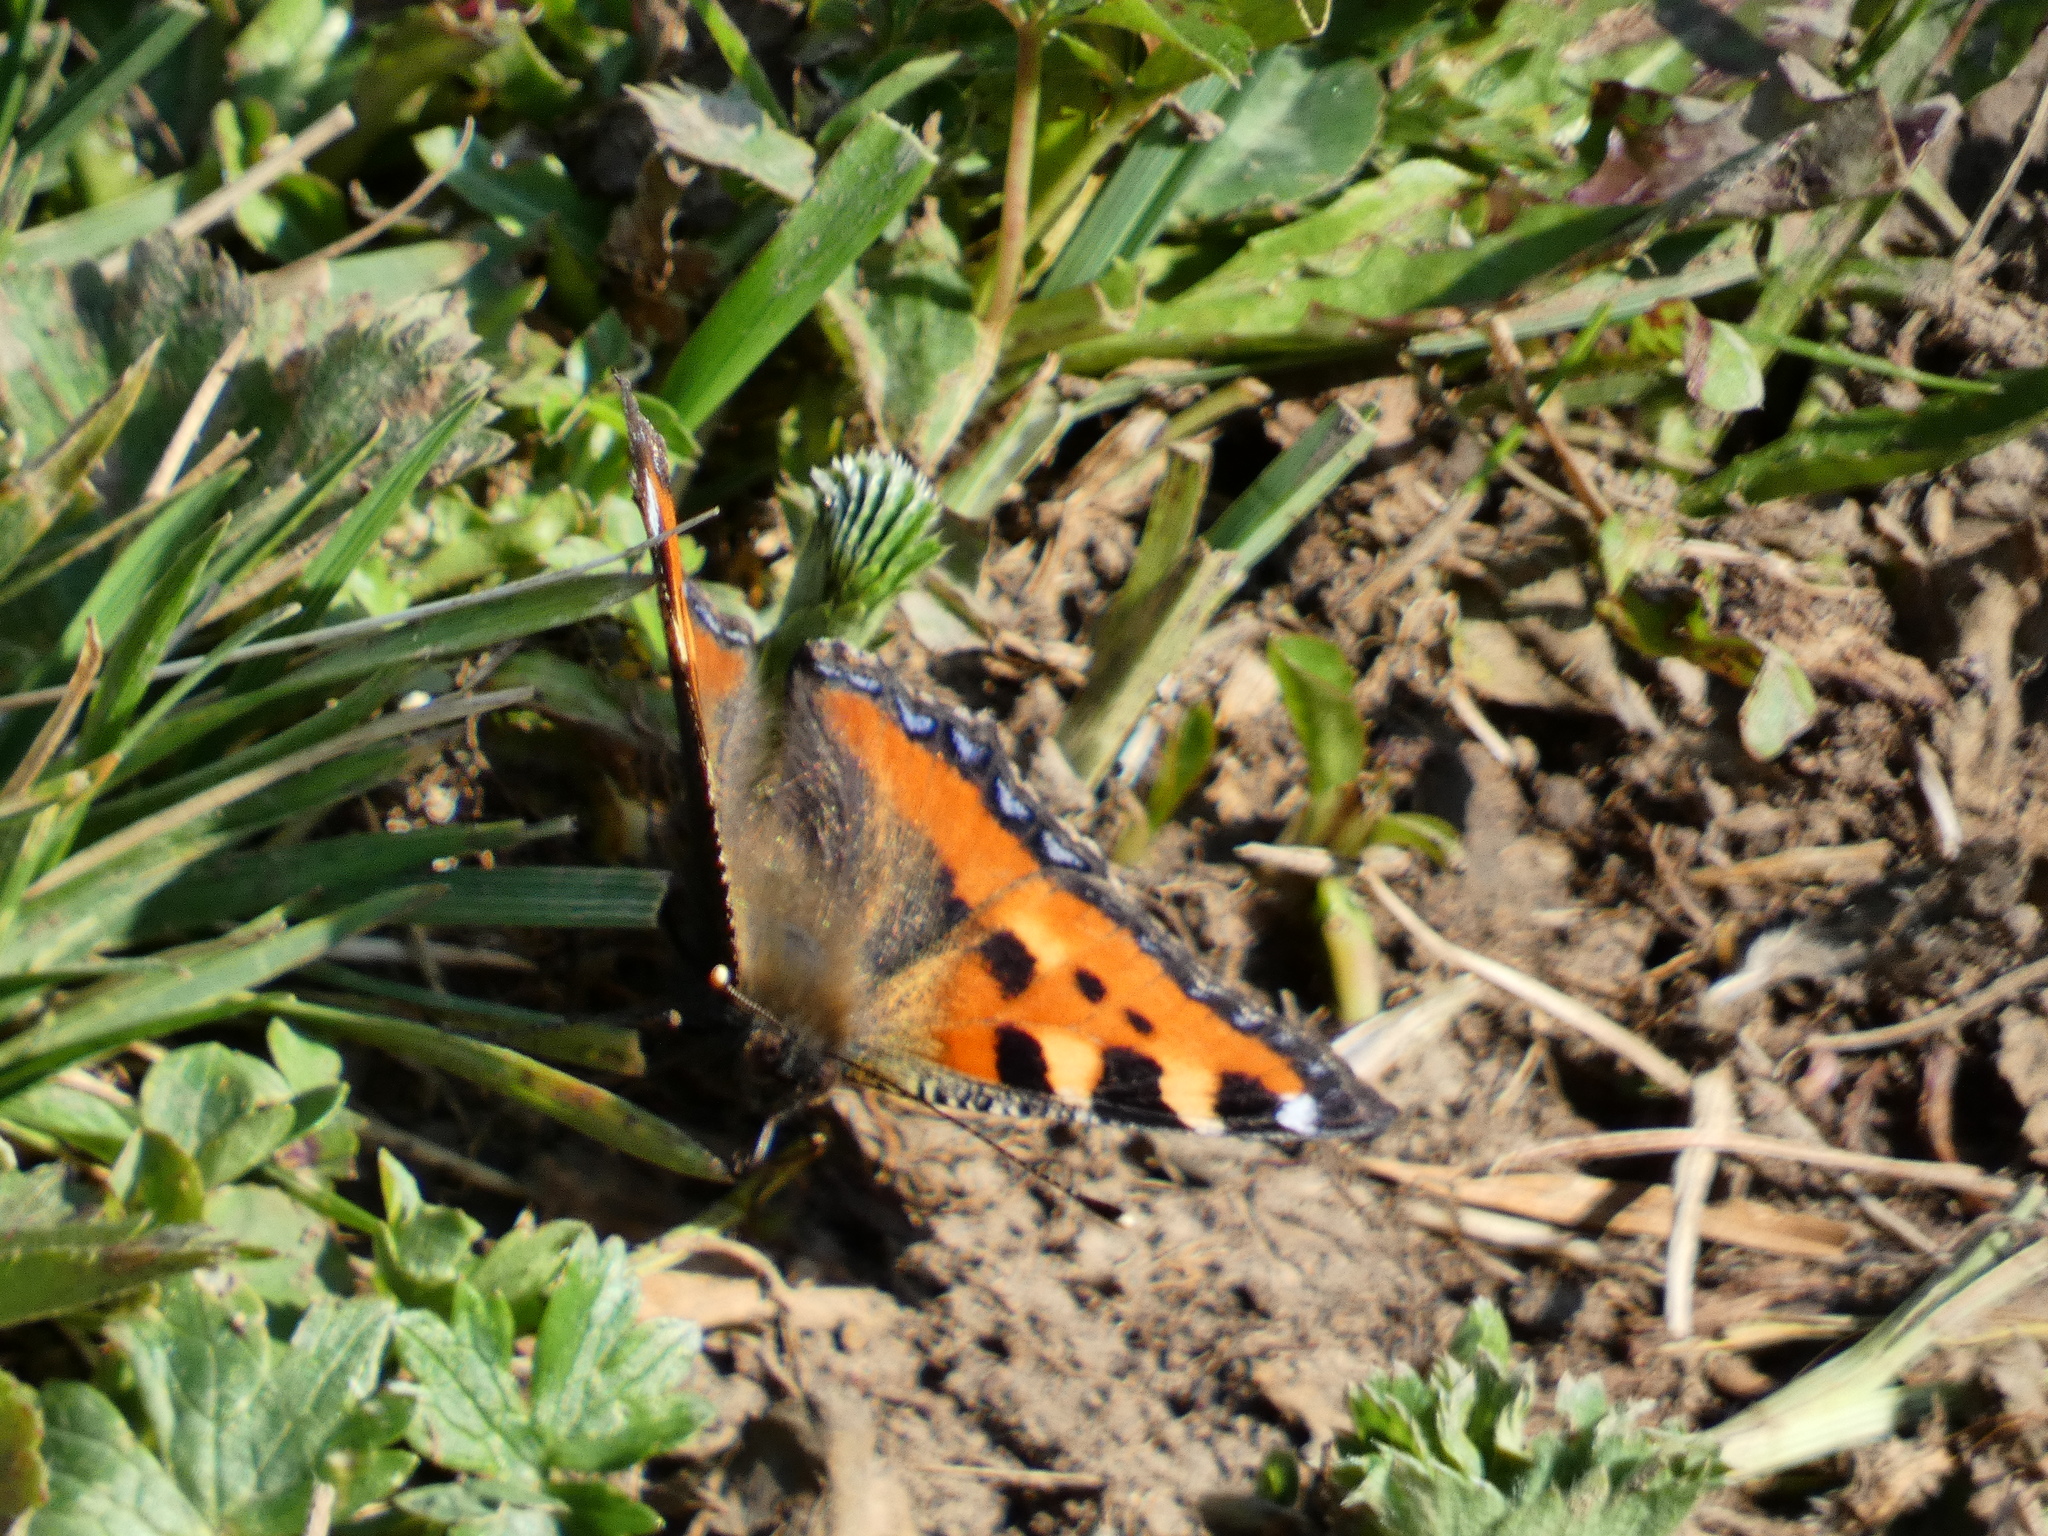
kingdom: Animalia
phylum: Arthropoda
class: Insecta
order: Lepidoptera
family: Nymphalidae
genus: Aglais
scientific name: Aglais urticae
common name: Small tortoiseshell
